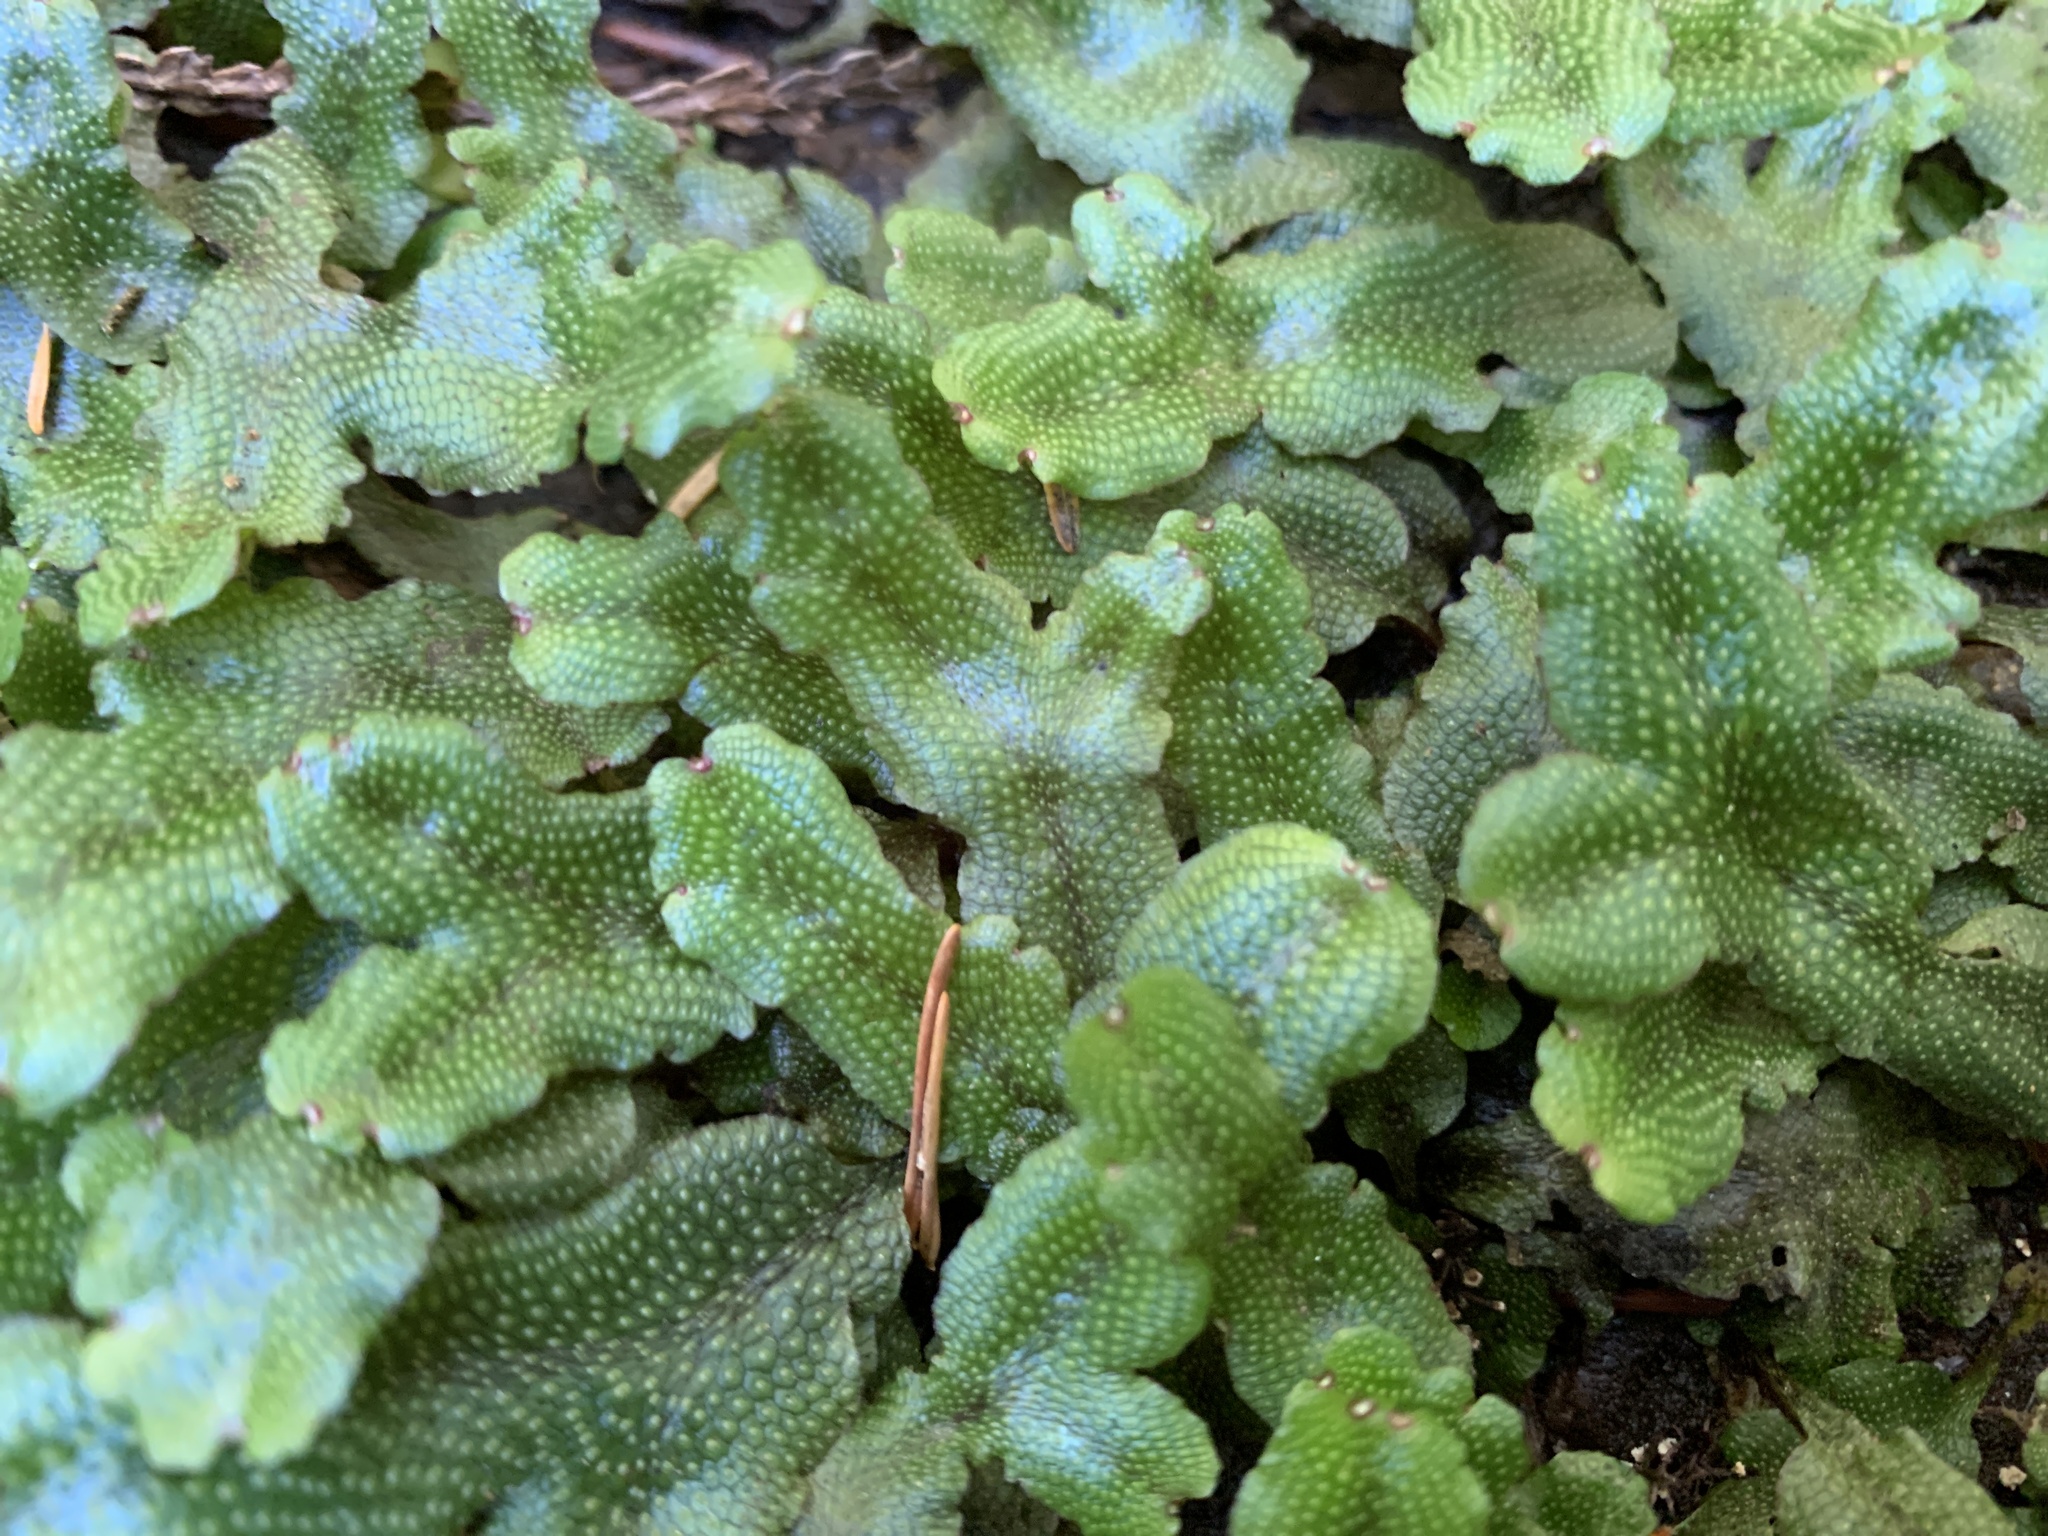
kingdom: Plantae
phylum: Marchantiophyta
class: Marchantiopsida
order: Marchantiales
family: Conocephalaceae
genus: Conocephalum
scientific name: Conocephalum salebrosum
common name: Cat-tongue liverwort
